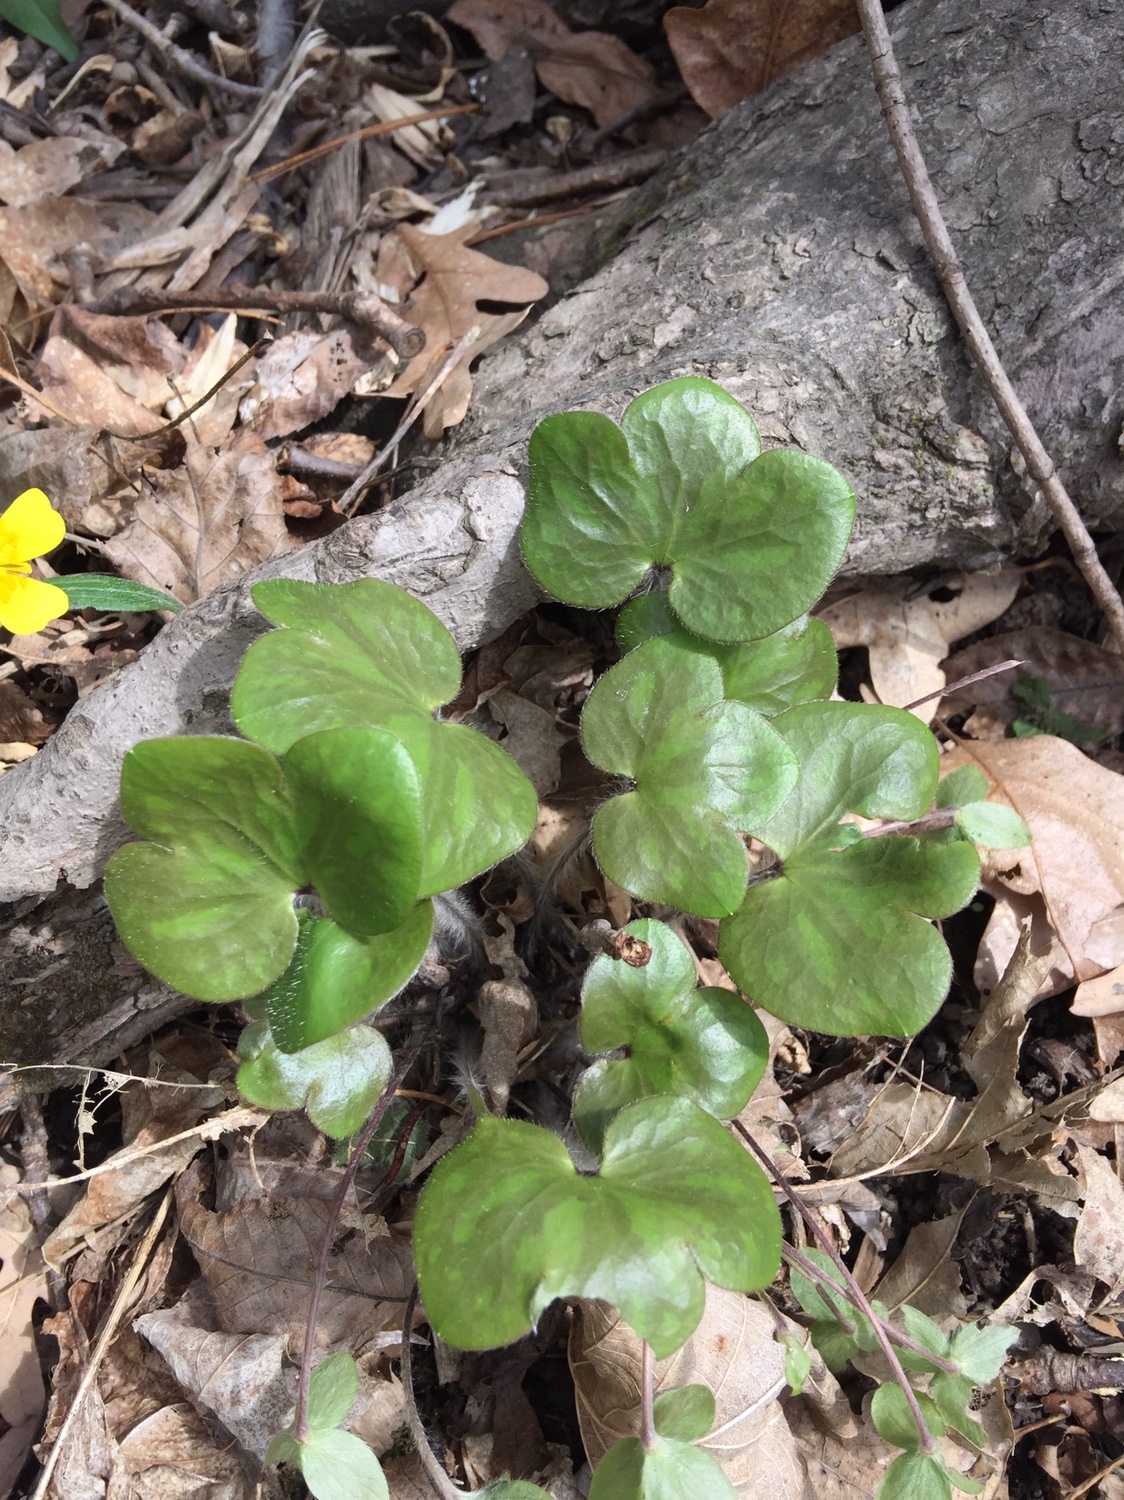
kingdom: Plantae
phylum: Tracheophyta
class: Magnoliopsida
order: Ranunculales
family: Ranunculaceae
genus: Hepatica
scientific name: Hepatica americana
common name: American hepatica
